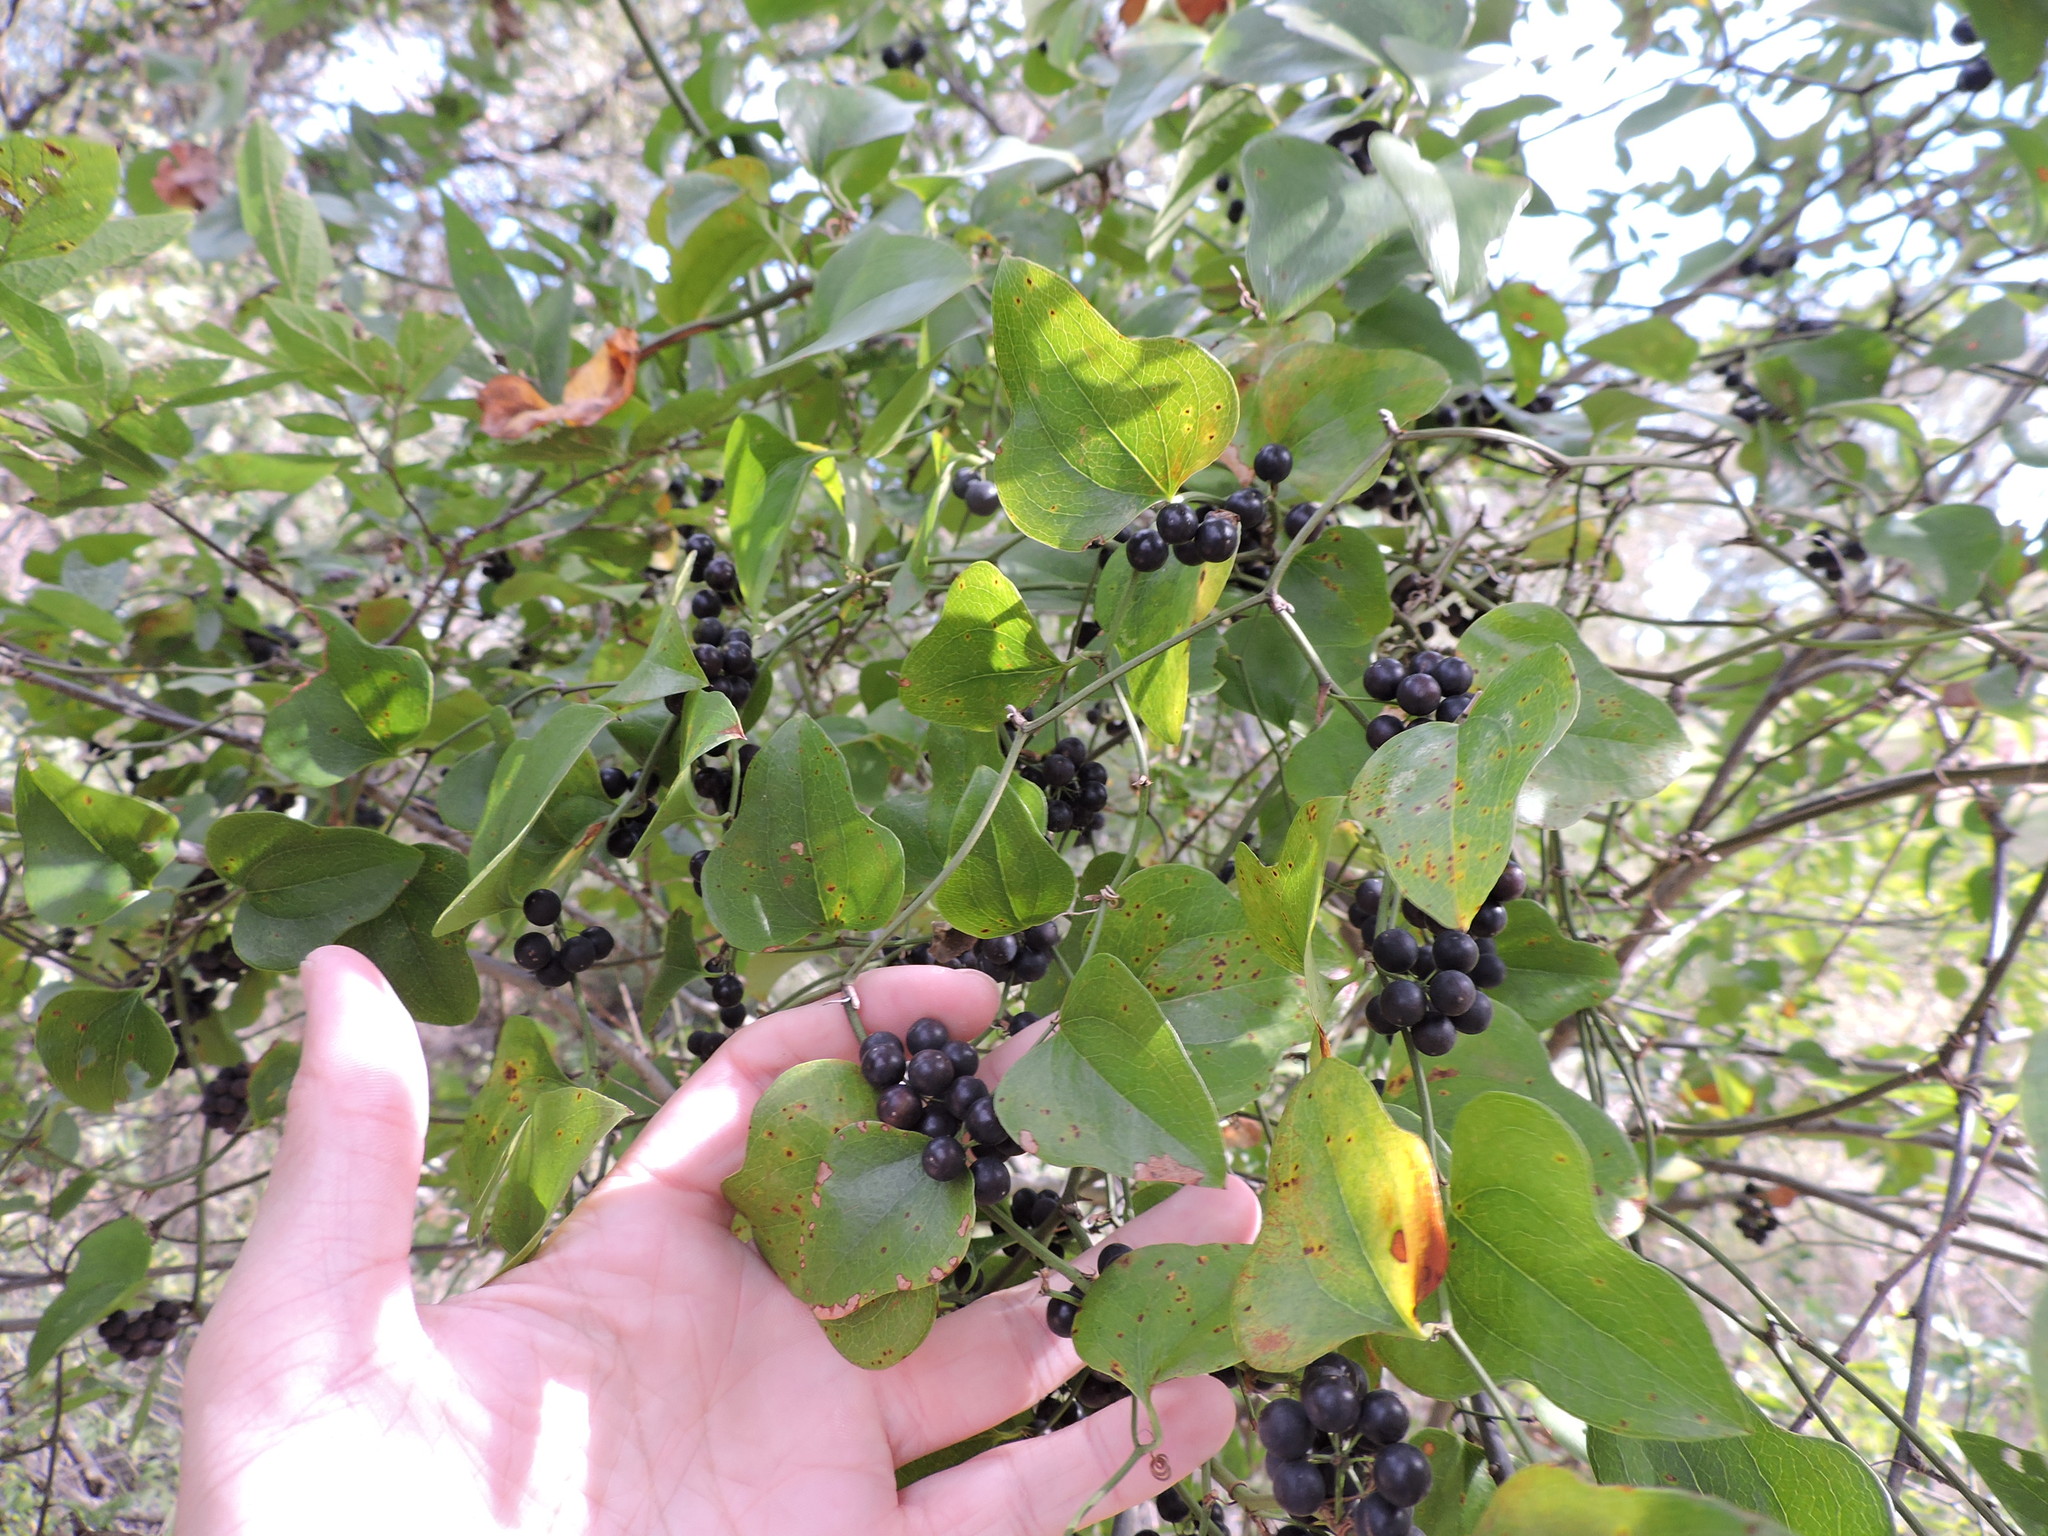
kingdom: Plantae
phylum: Tracheophyta
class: Liliopsida
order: Liliales
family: Smilacaceae
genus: Smilax
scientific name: Smilax bona-nox
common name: Catbrier
